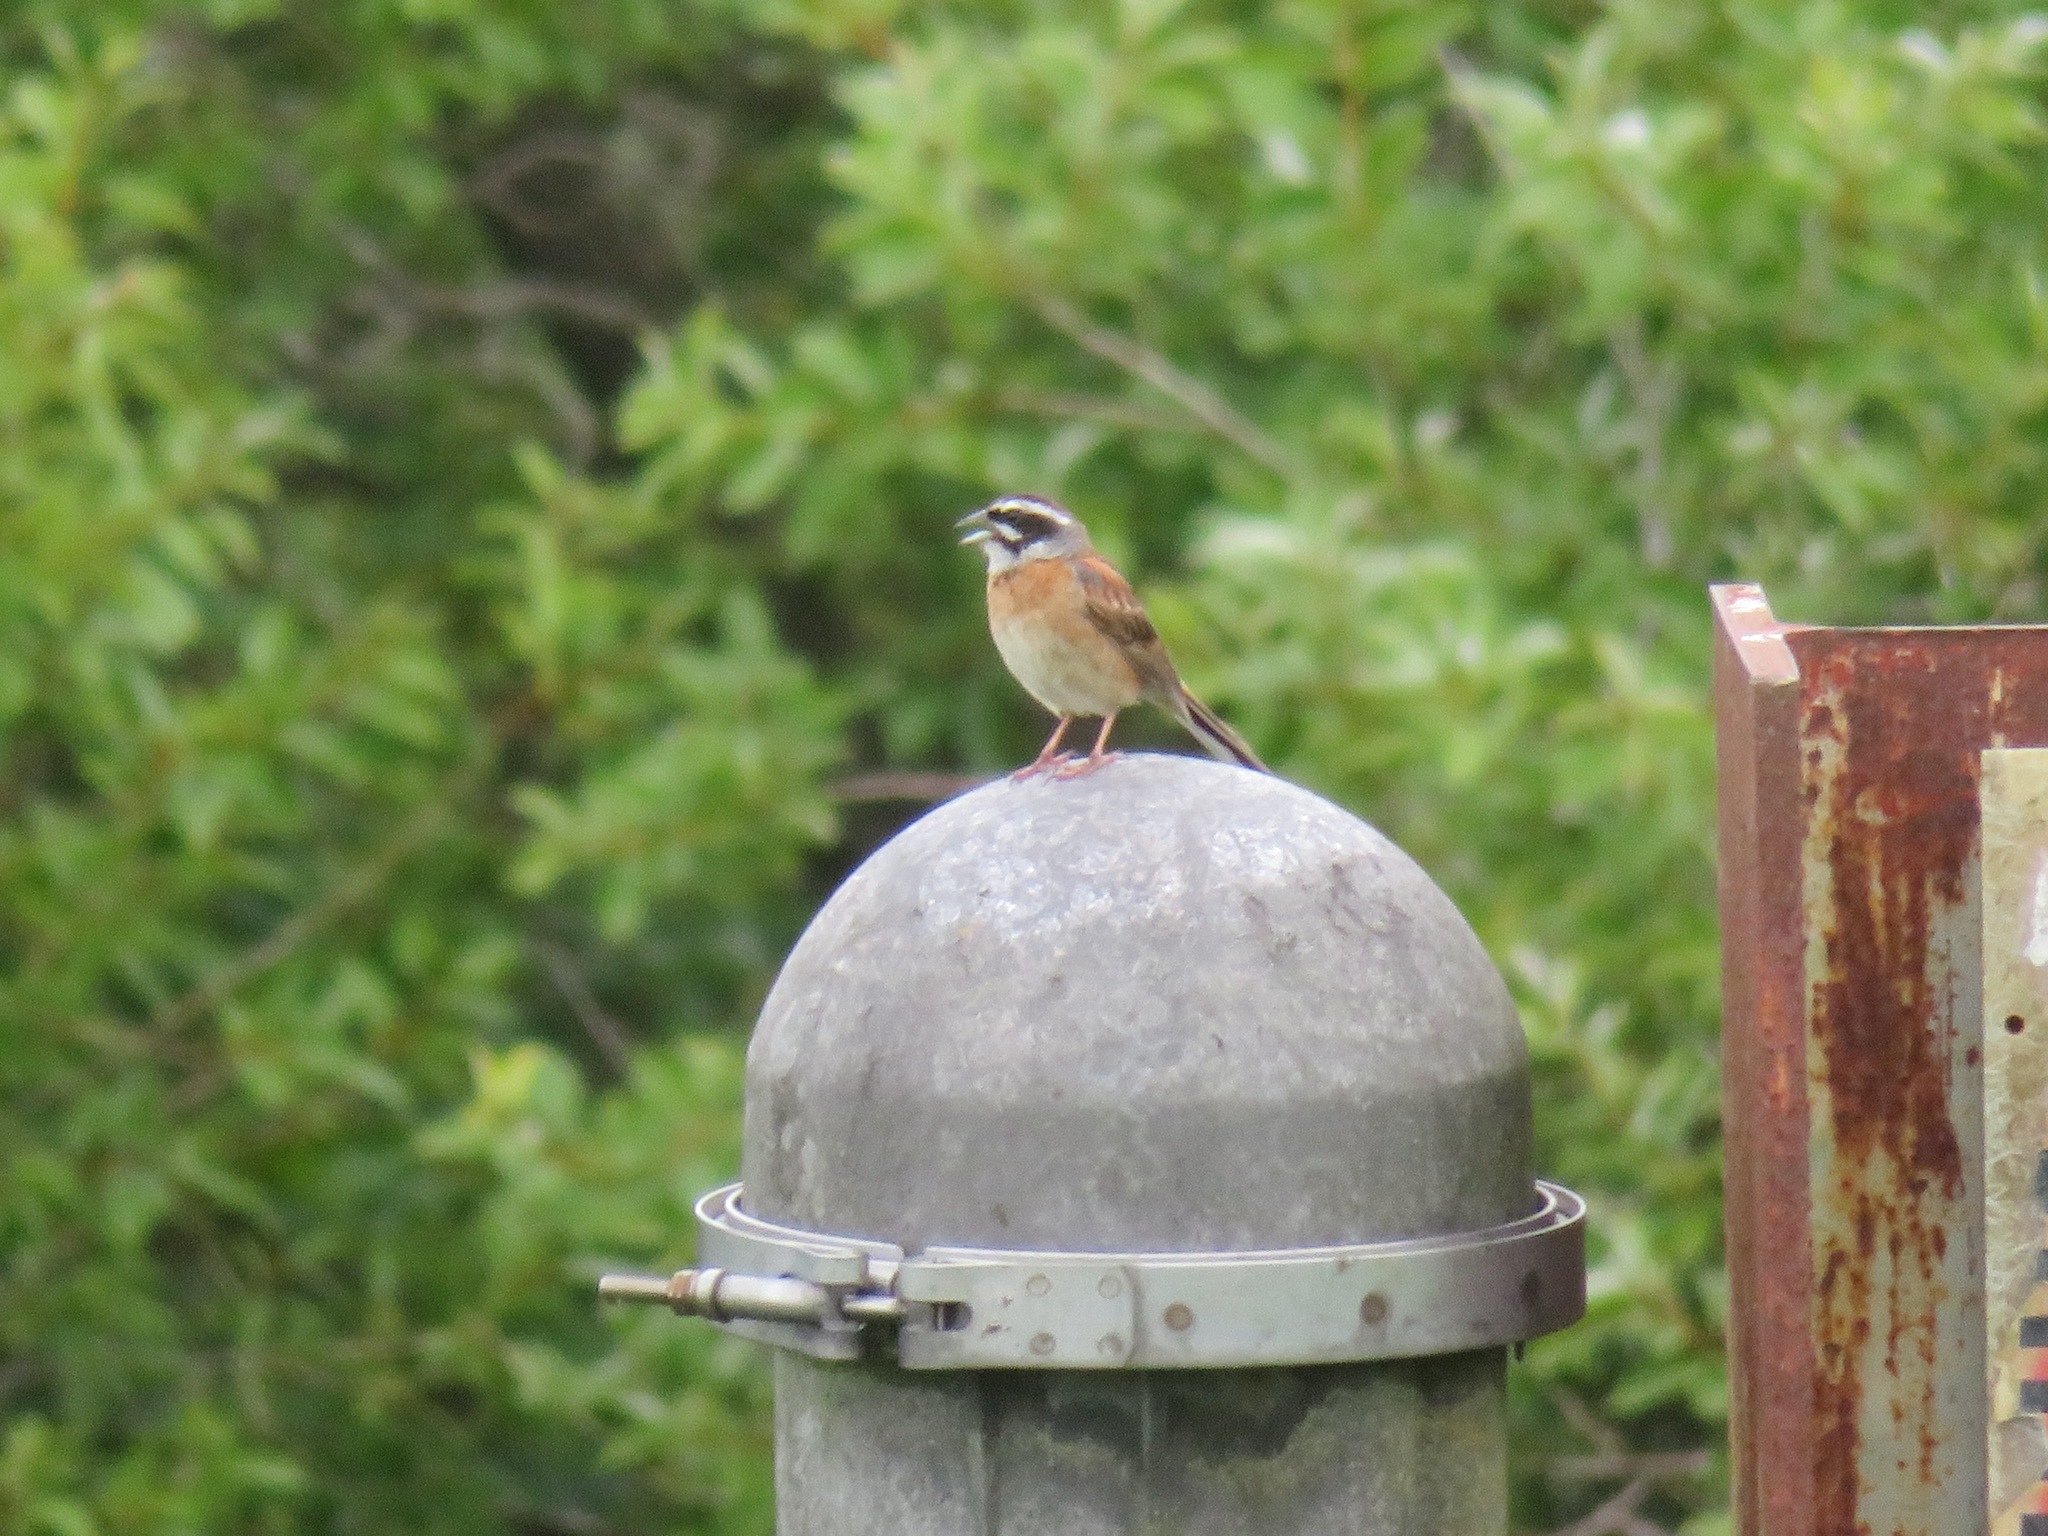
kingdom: Animalia
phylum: Chordata
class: Aves
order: Passeriformes
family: Emberizidae
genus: Emberiza
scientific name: Emberiza cioides
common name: Meadow bunting
